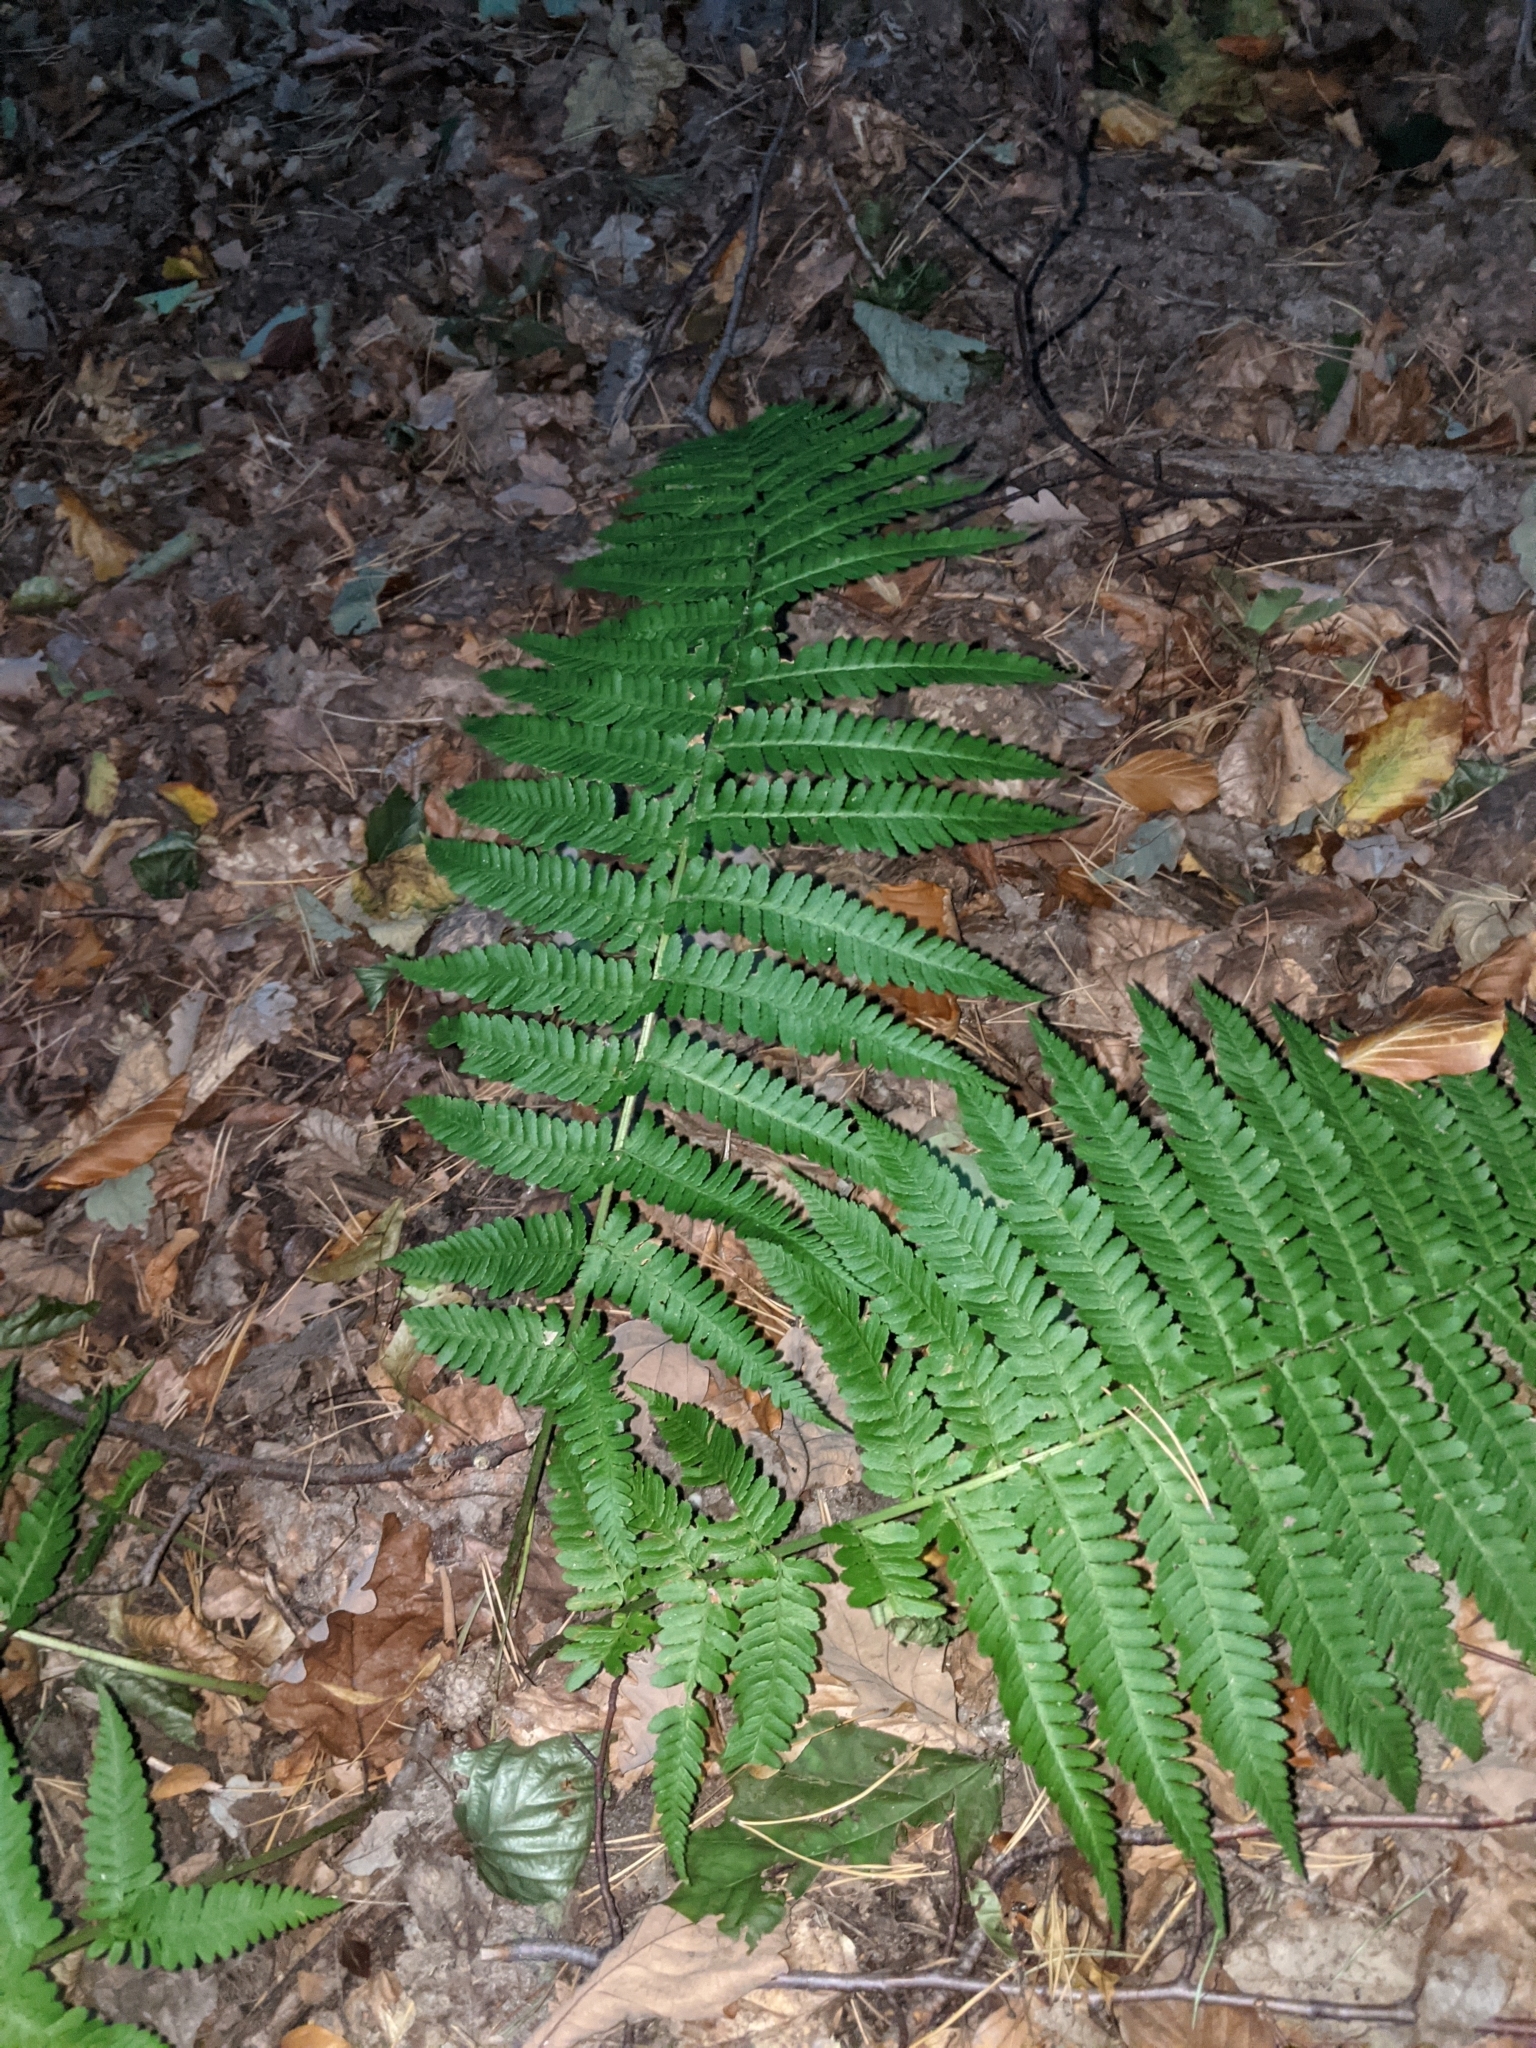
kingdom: Plantae
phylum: Tracheophyta
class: Polypodiopsida
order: Polypodiales
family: Dryopteridaceae
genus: Dryopteris
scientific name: Dryopteris filix-mas
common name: Male fern
